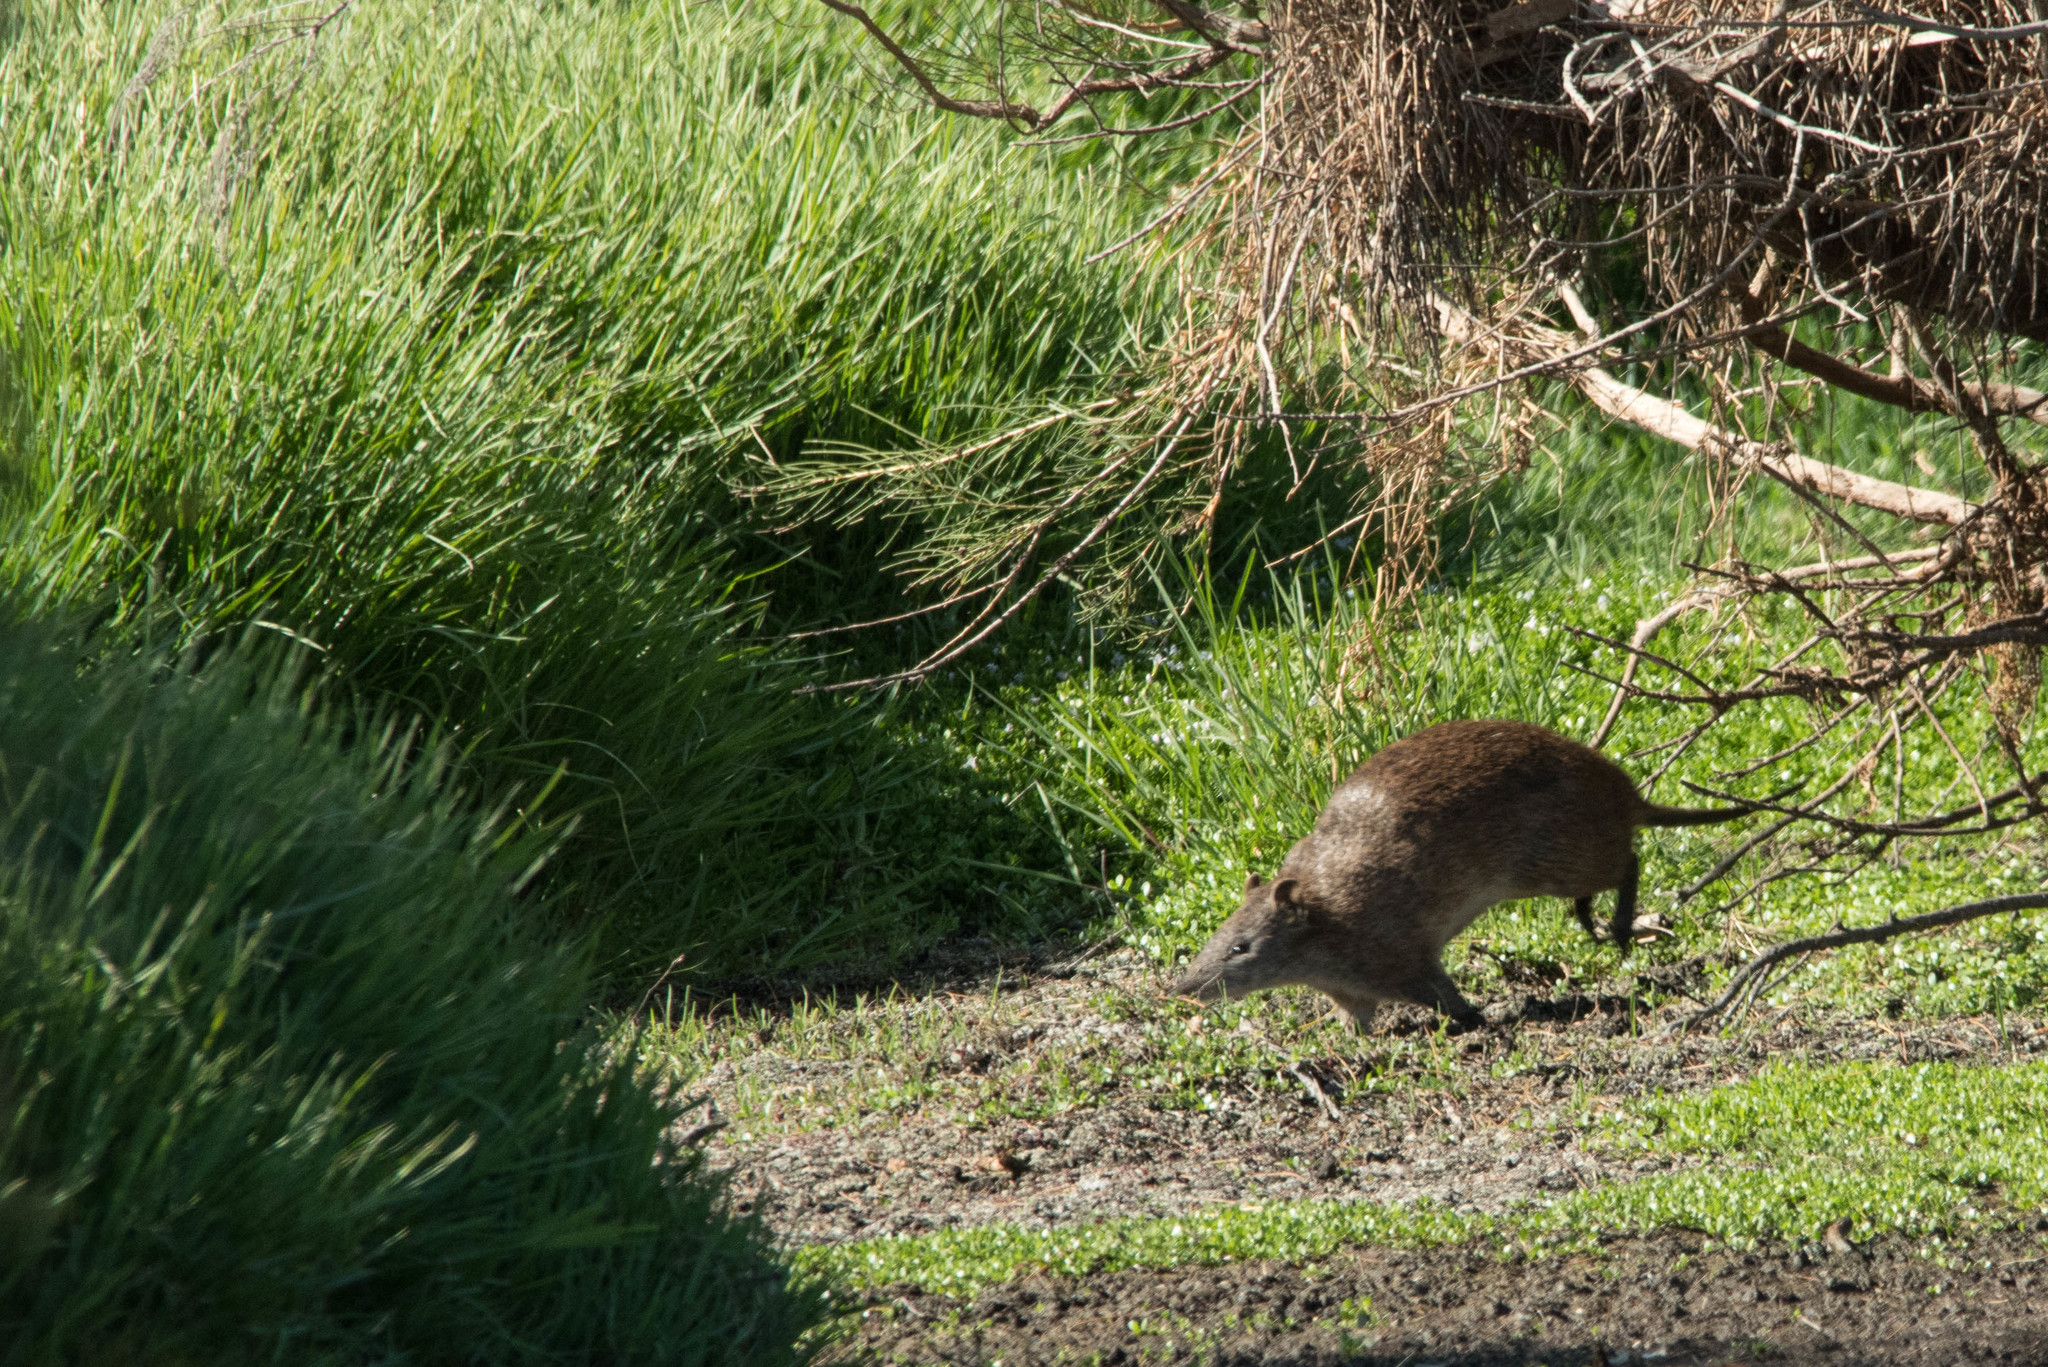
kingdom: Animalia
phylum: Chordata
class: Mammalia
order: Peramelemorphia
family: Peramelidae
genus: Isoodon
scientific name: Isoodon fusciventer
